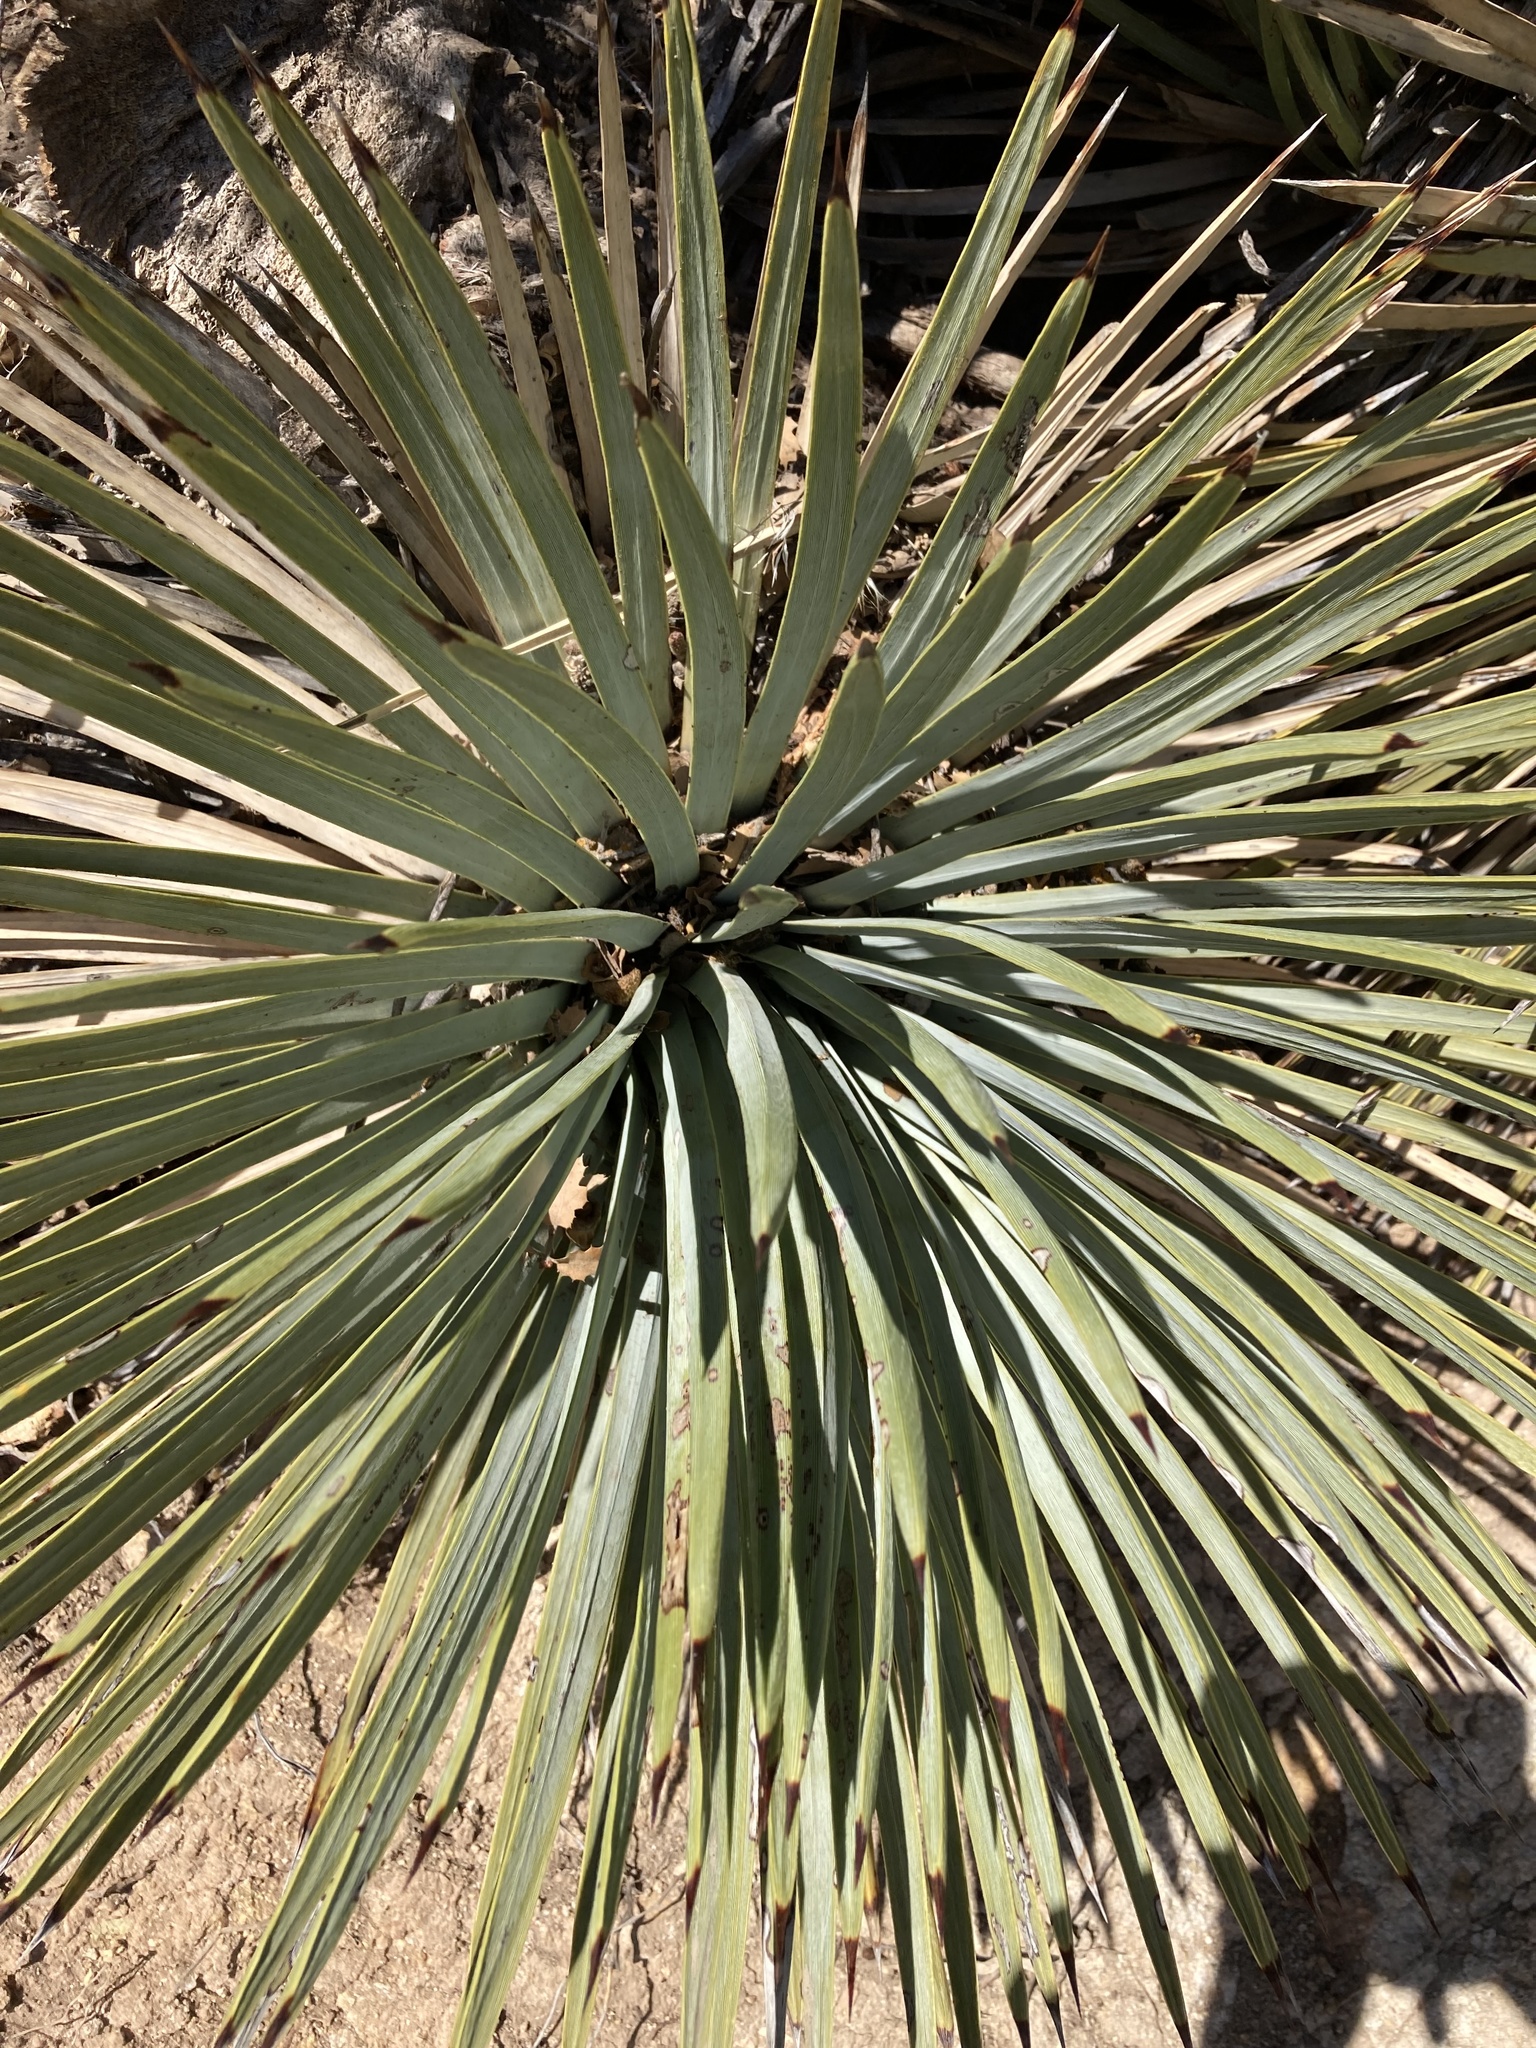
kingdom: Plantae
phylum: Tracheophyta
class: Liliopsida
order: Asparagales
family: Asparagaceae
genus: Hesperoyucca
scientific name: Hesperoyucca whipplei
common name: Our lord's-candle
